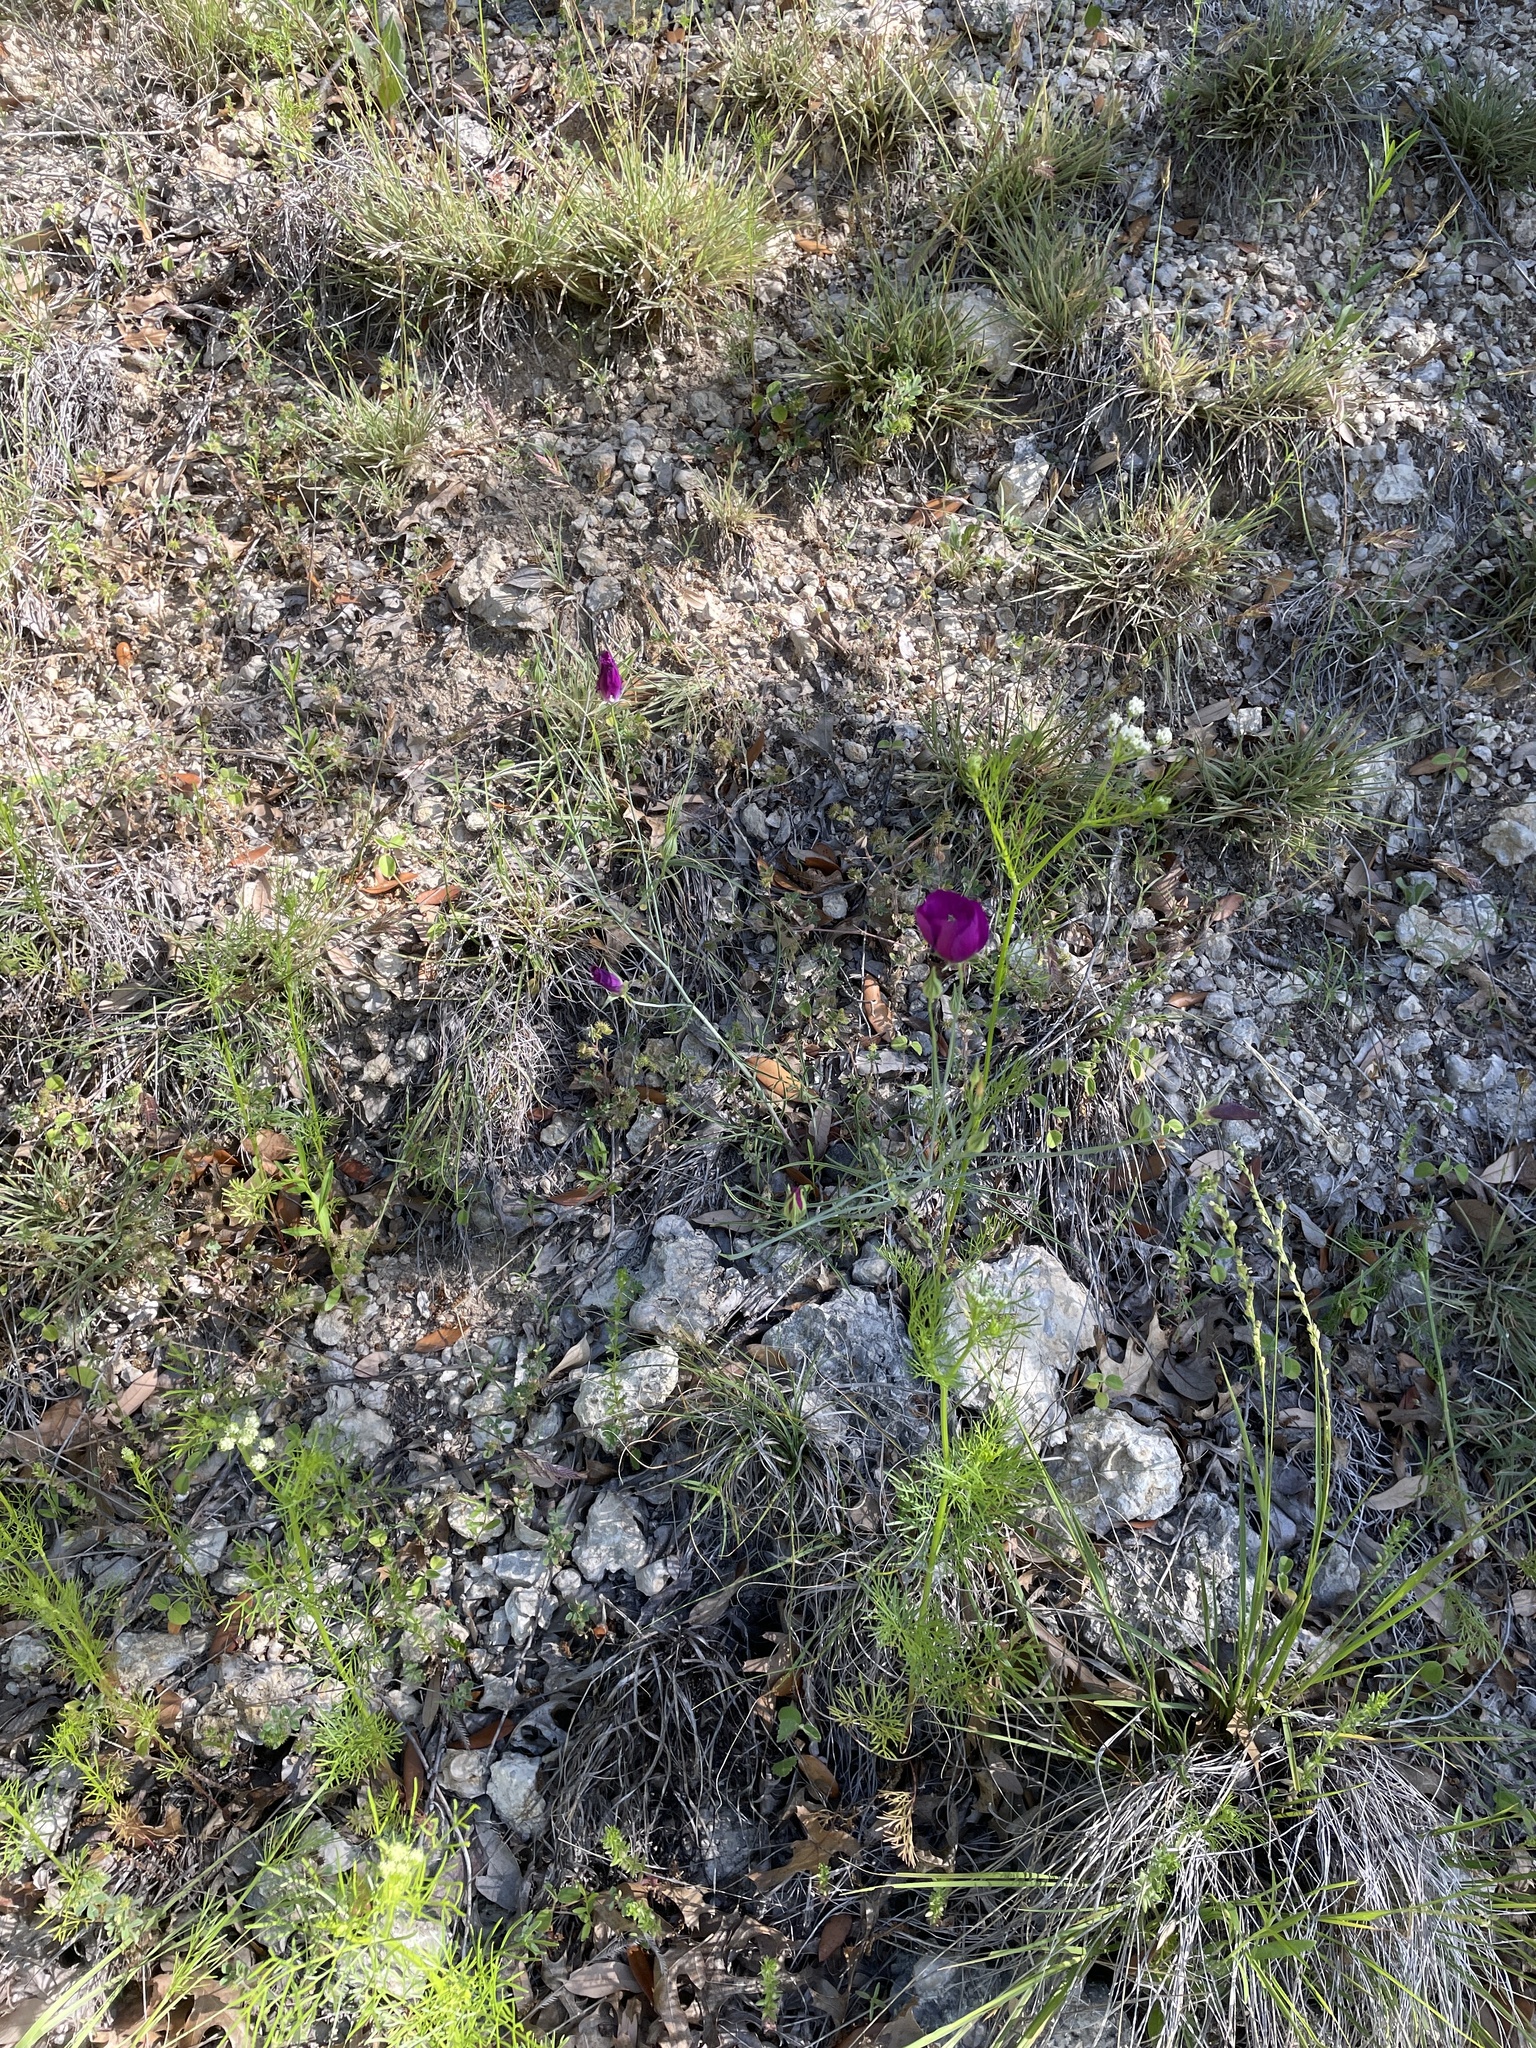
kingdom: Plantae
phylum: Tracheophyta
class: Magnoliopsida
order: Malvales
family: Malvaceae
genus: Callirhoe
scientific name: Callirhoe pedata
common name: Finger poppy-mallow
